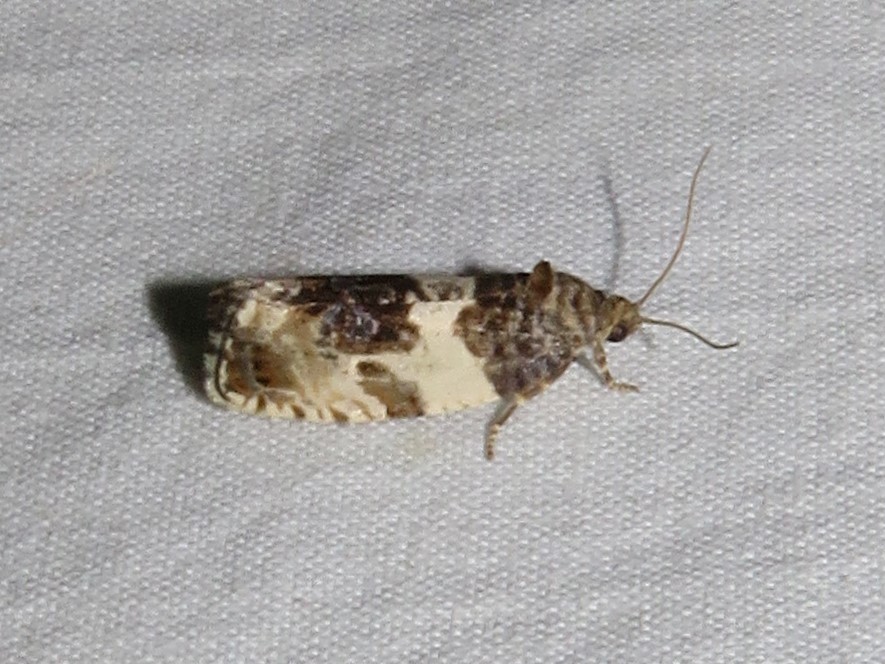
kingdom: Animalia
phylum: Arthropoda
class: Insecta
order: Lepidoptera
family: Tortricidae
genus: Pseudosciaphila
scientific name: Pseudosciaphila duplex
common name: Poplar leafroller moth
